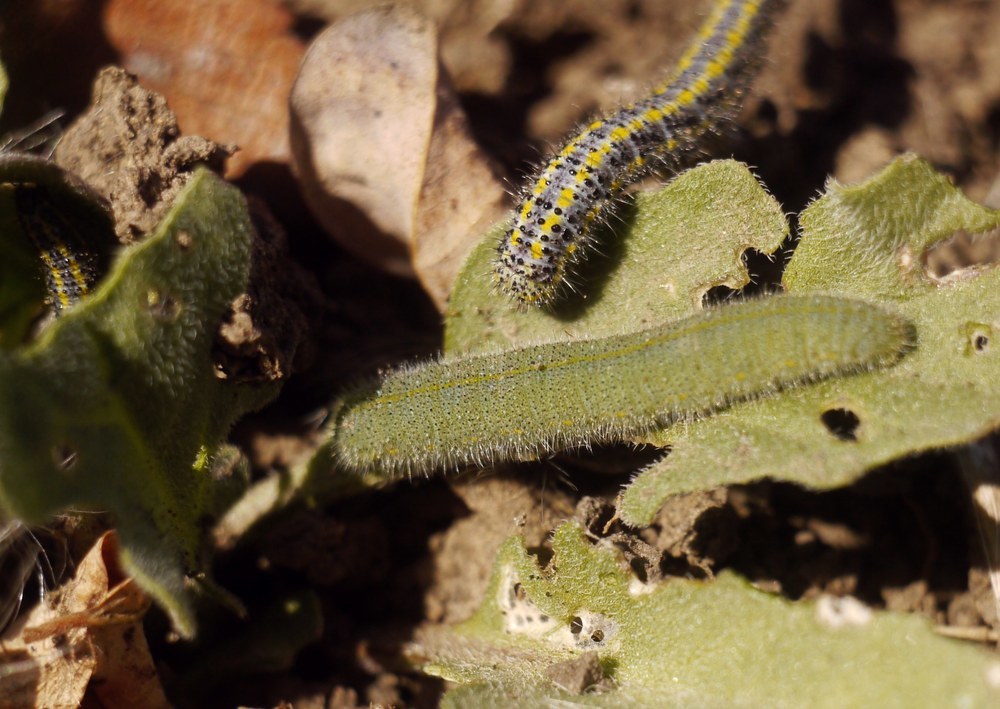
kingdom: Animalia
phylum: Arthropoda
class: Insecta
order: Lepidoptera
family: Pieridae
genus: Pieris
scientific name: Pieris rapae
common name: Small white
